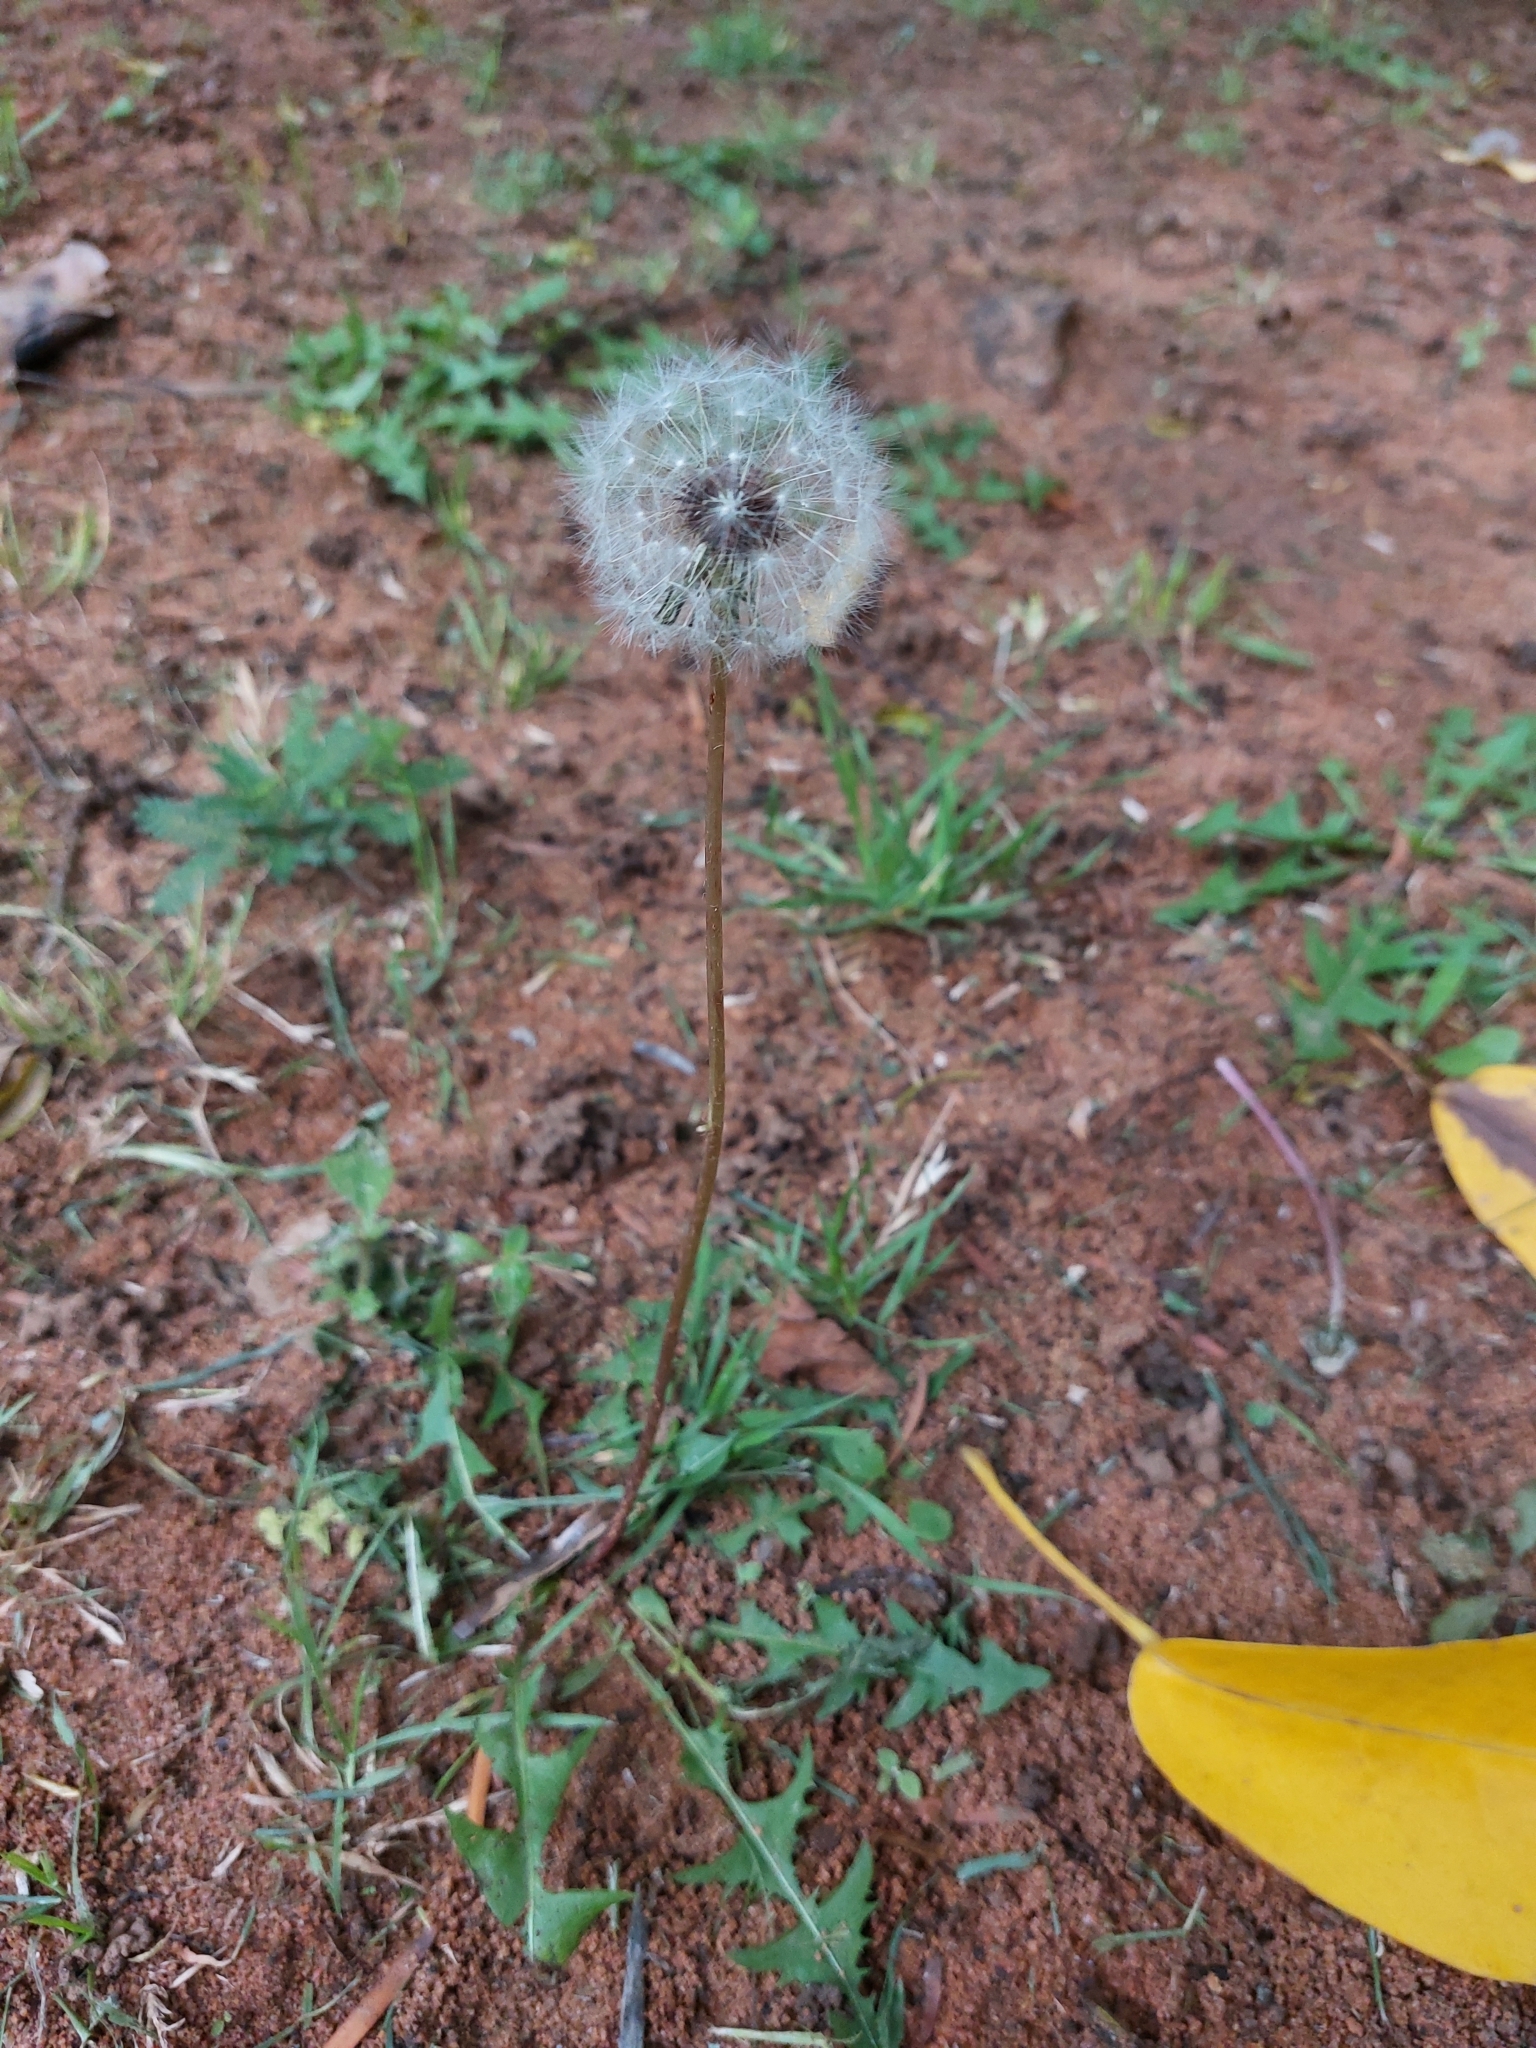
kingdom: Plantae
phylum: Tracheophyta
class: Magnoliopsida
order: Asterales
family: Asteraceae
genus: Taraxacum
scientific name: Taraxacum officinale
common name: Common dandelion
